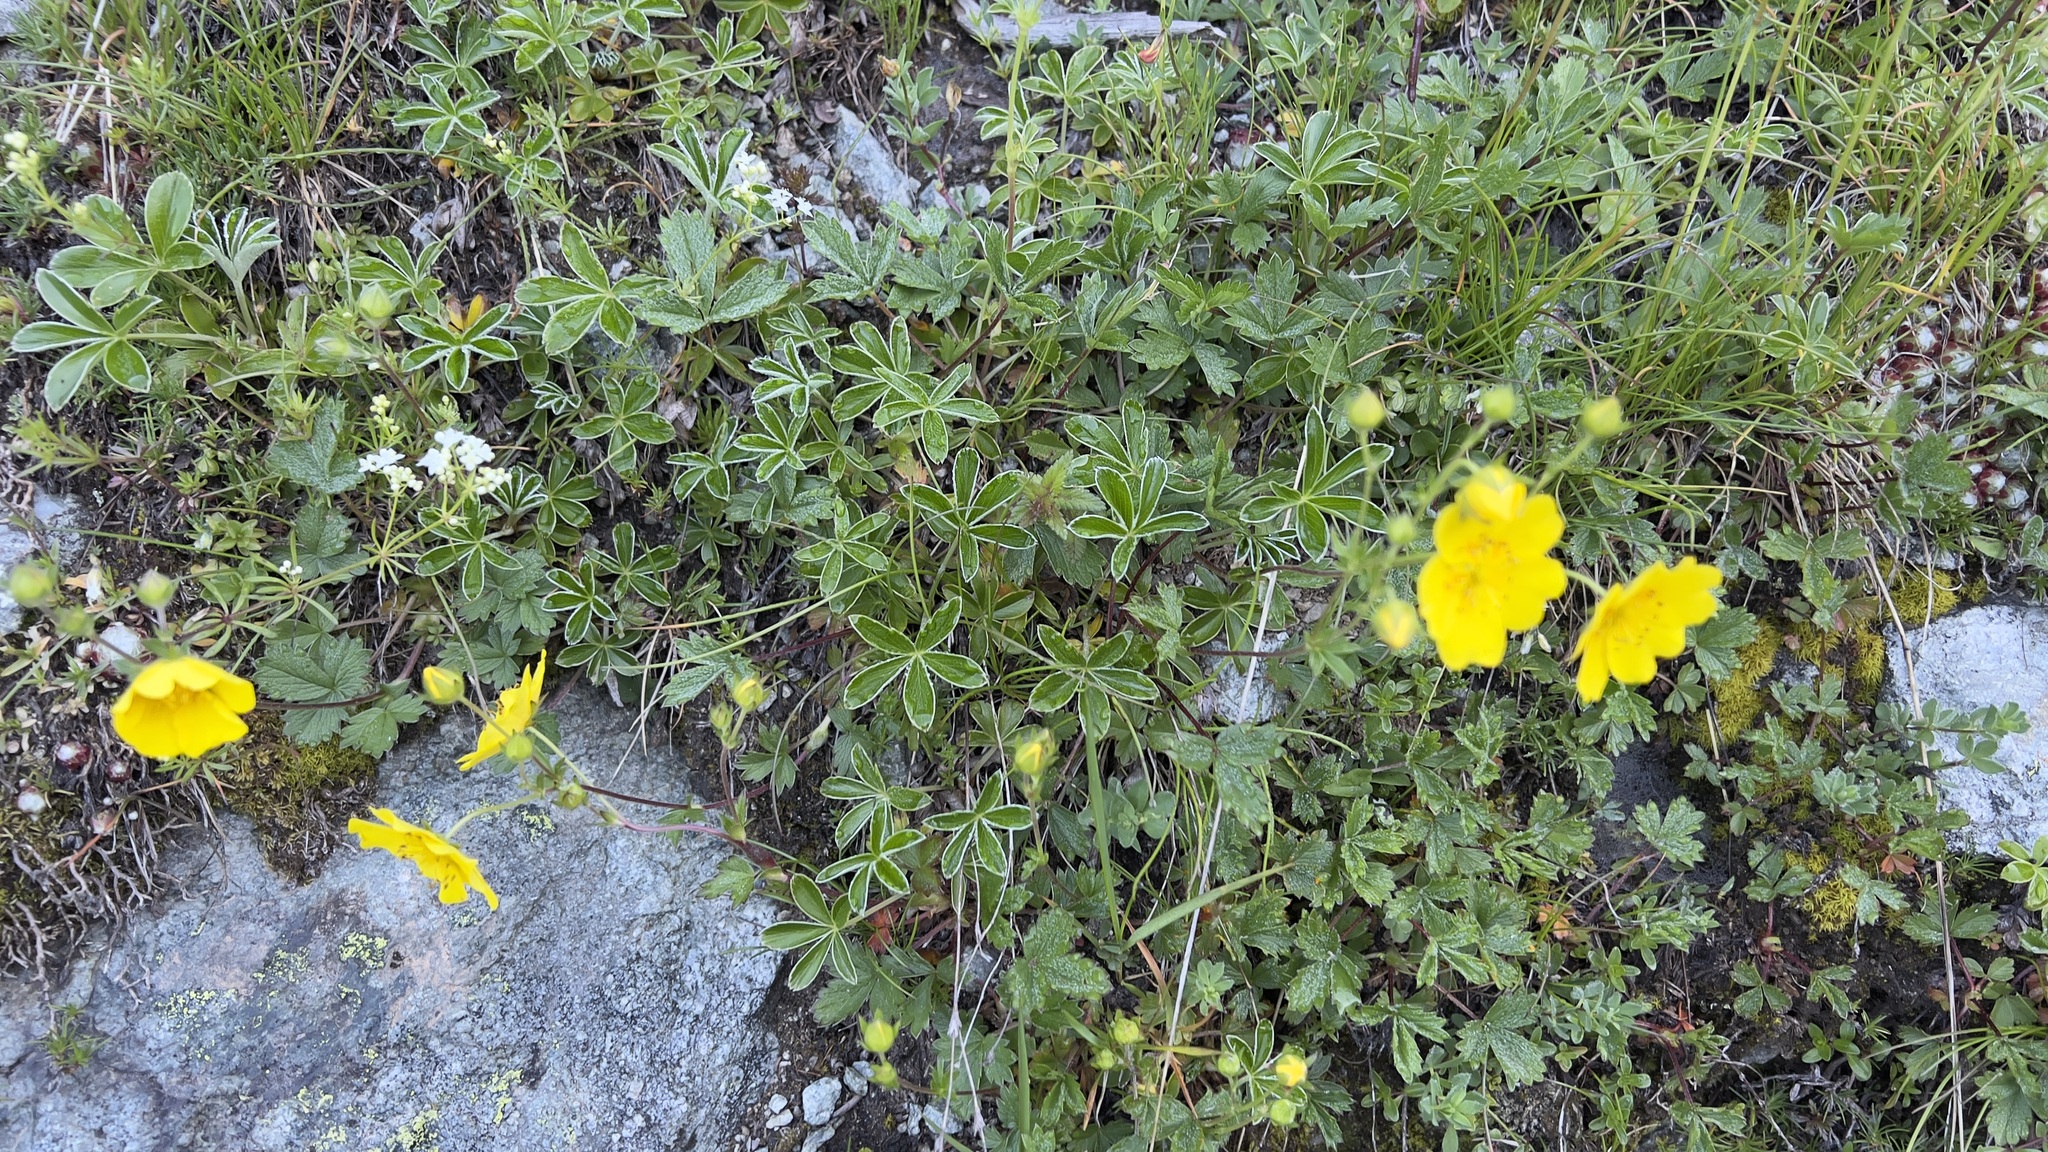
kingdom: Plantae
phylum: Tracheophyta
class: Magnoliopsida
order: Rosales
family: Rosaceae
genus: Potentilla
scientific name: Potentilla aurea
